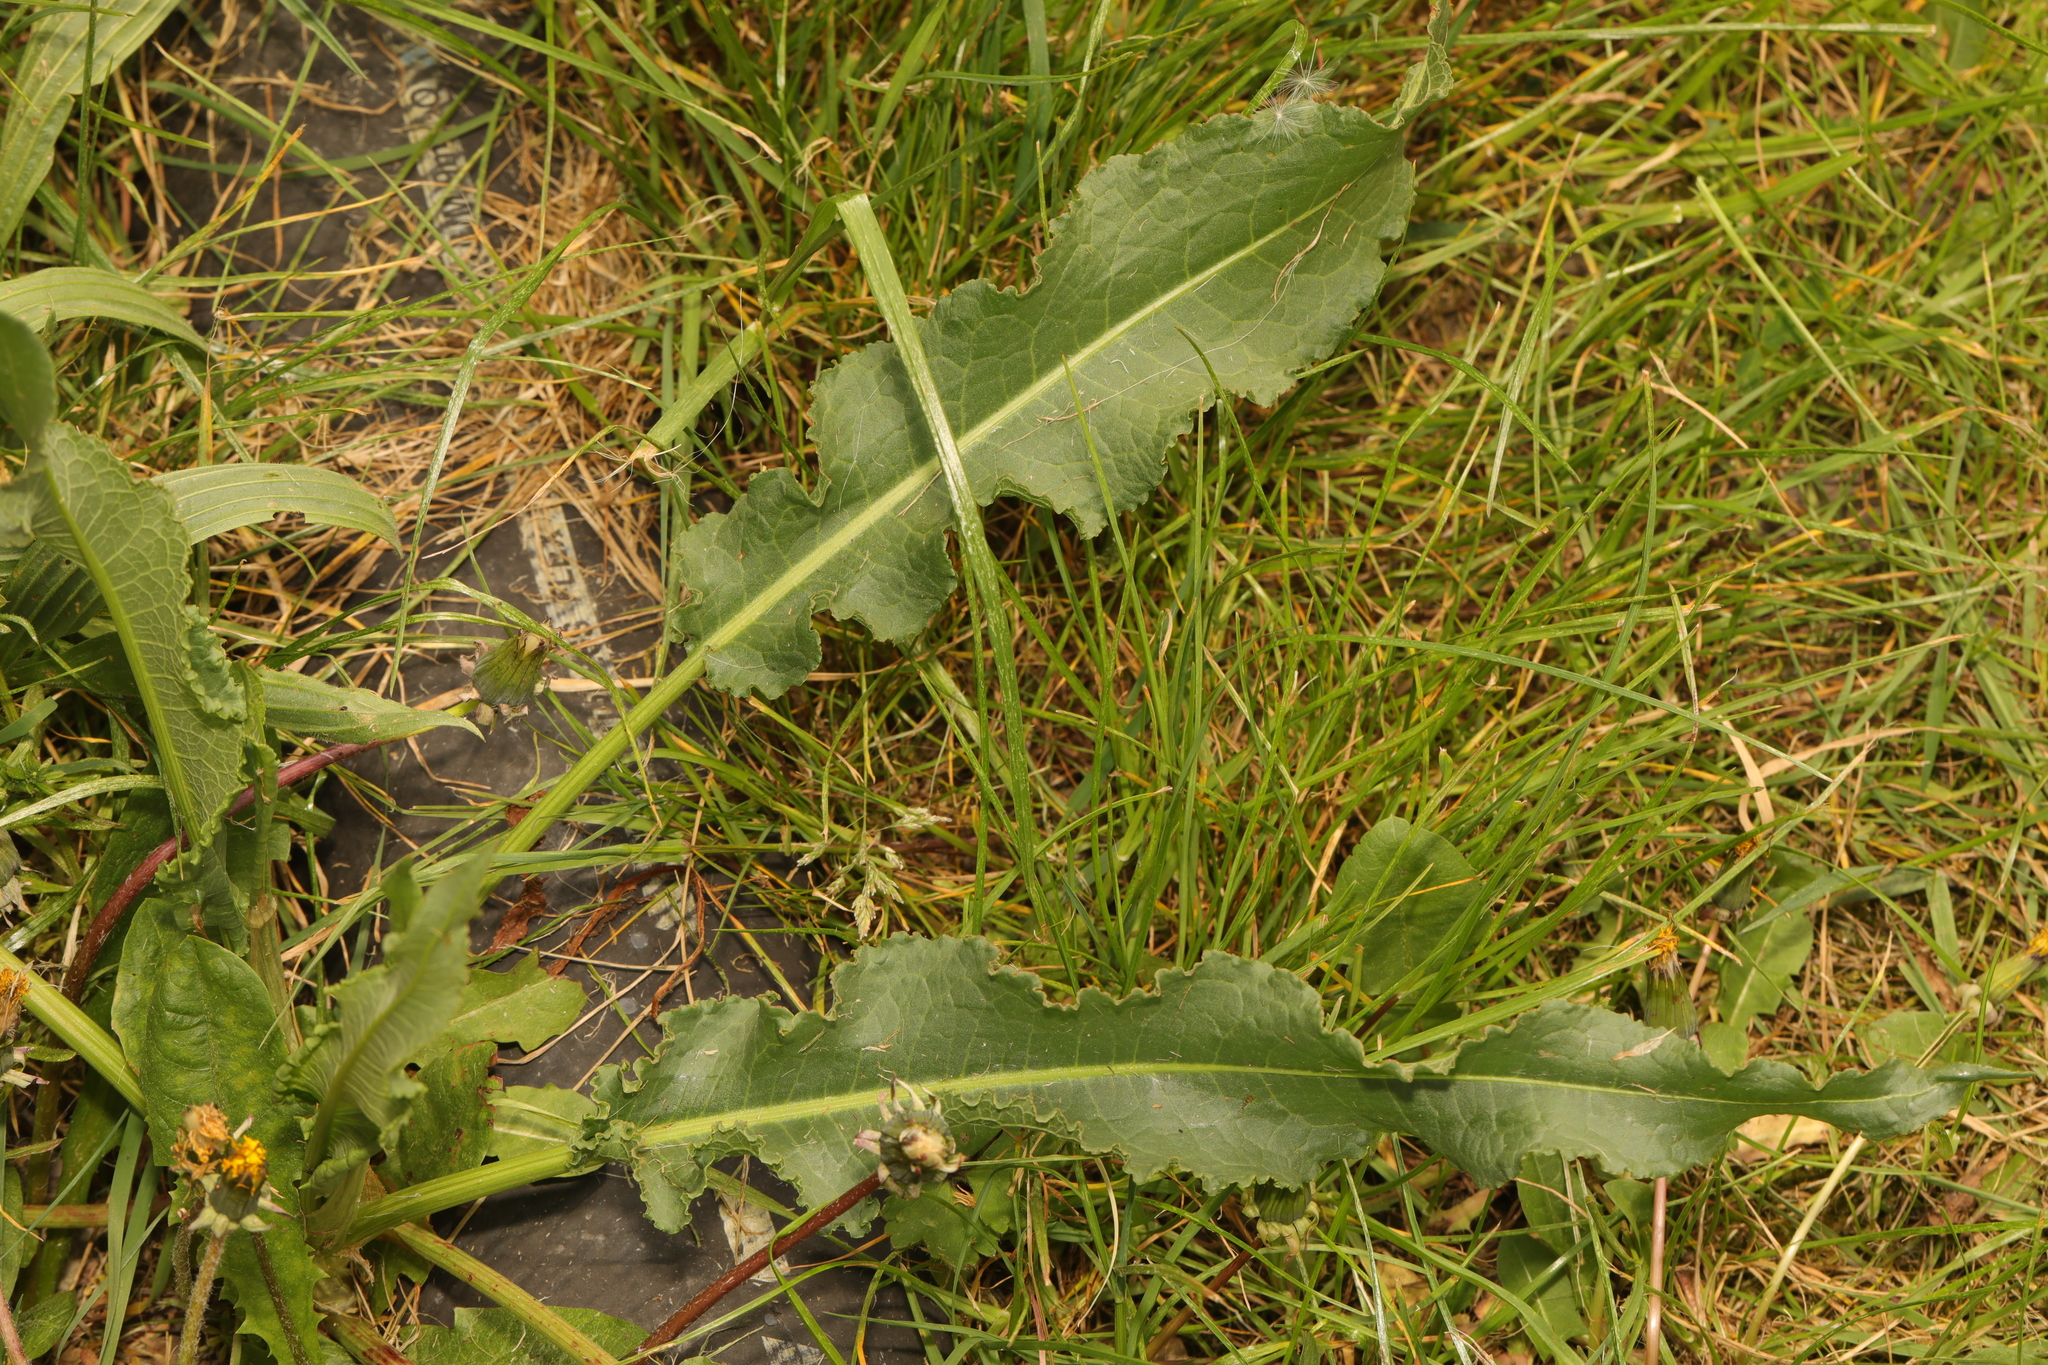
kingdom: Plantae
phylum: Tracheophyta
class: Magnoliopsida
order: Caryophyllales
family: Polygonaceae
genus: Rumex
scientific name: Rumex crispus
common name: Curled dock
